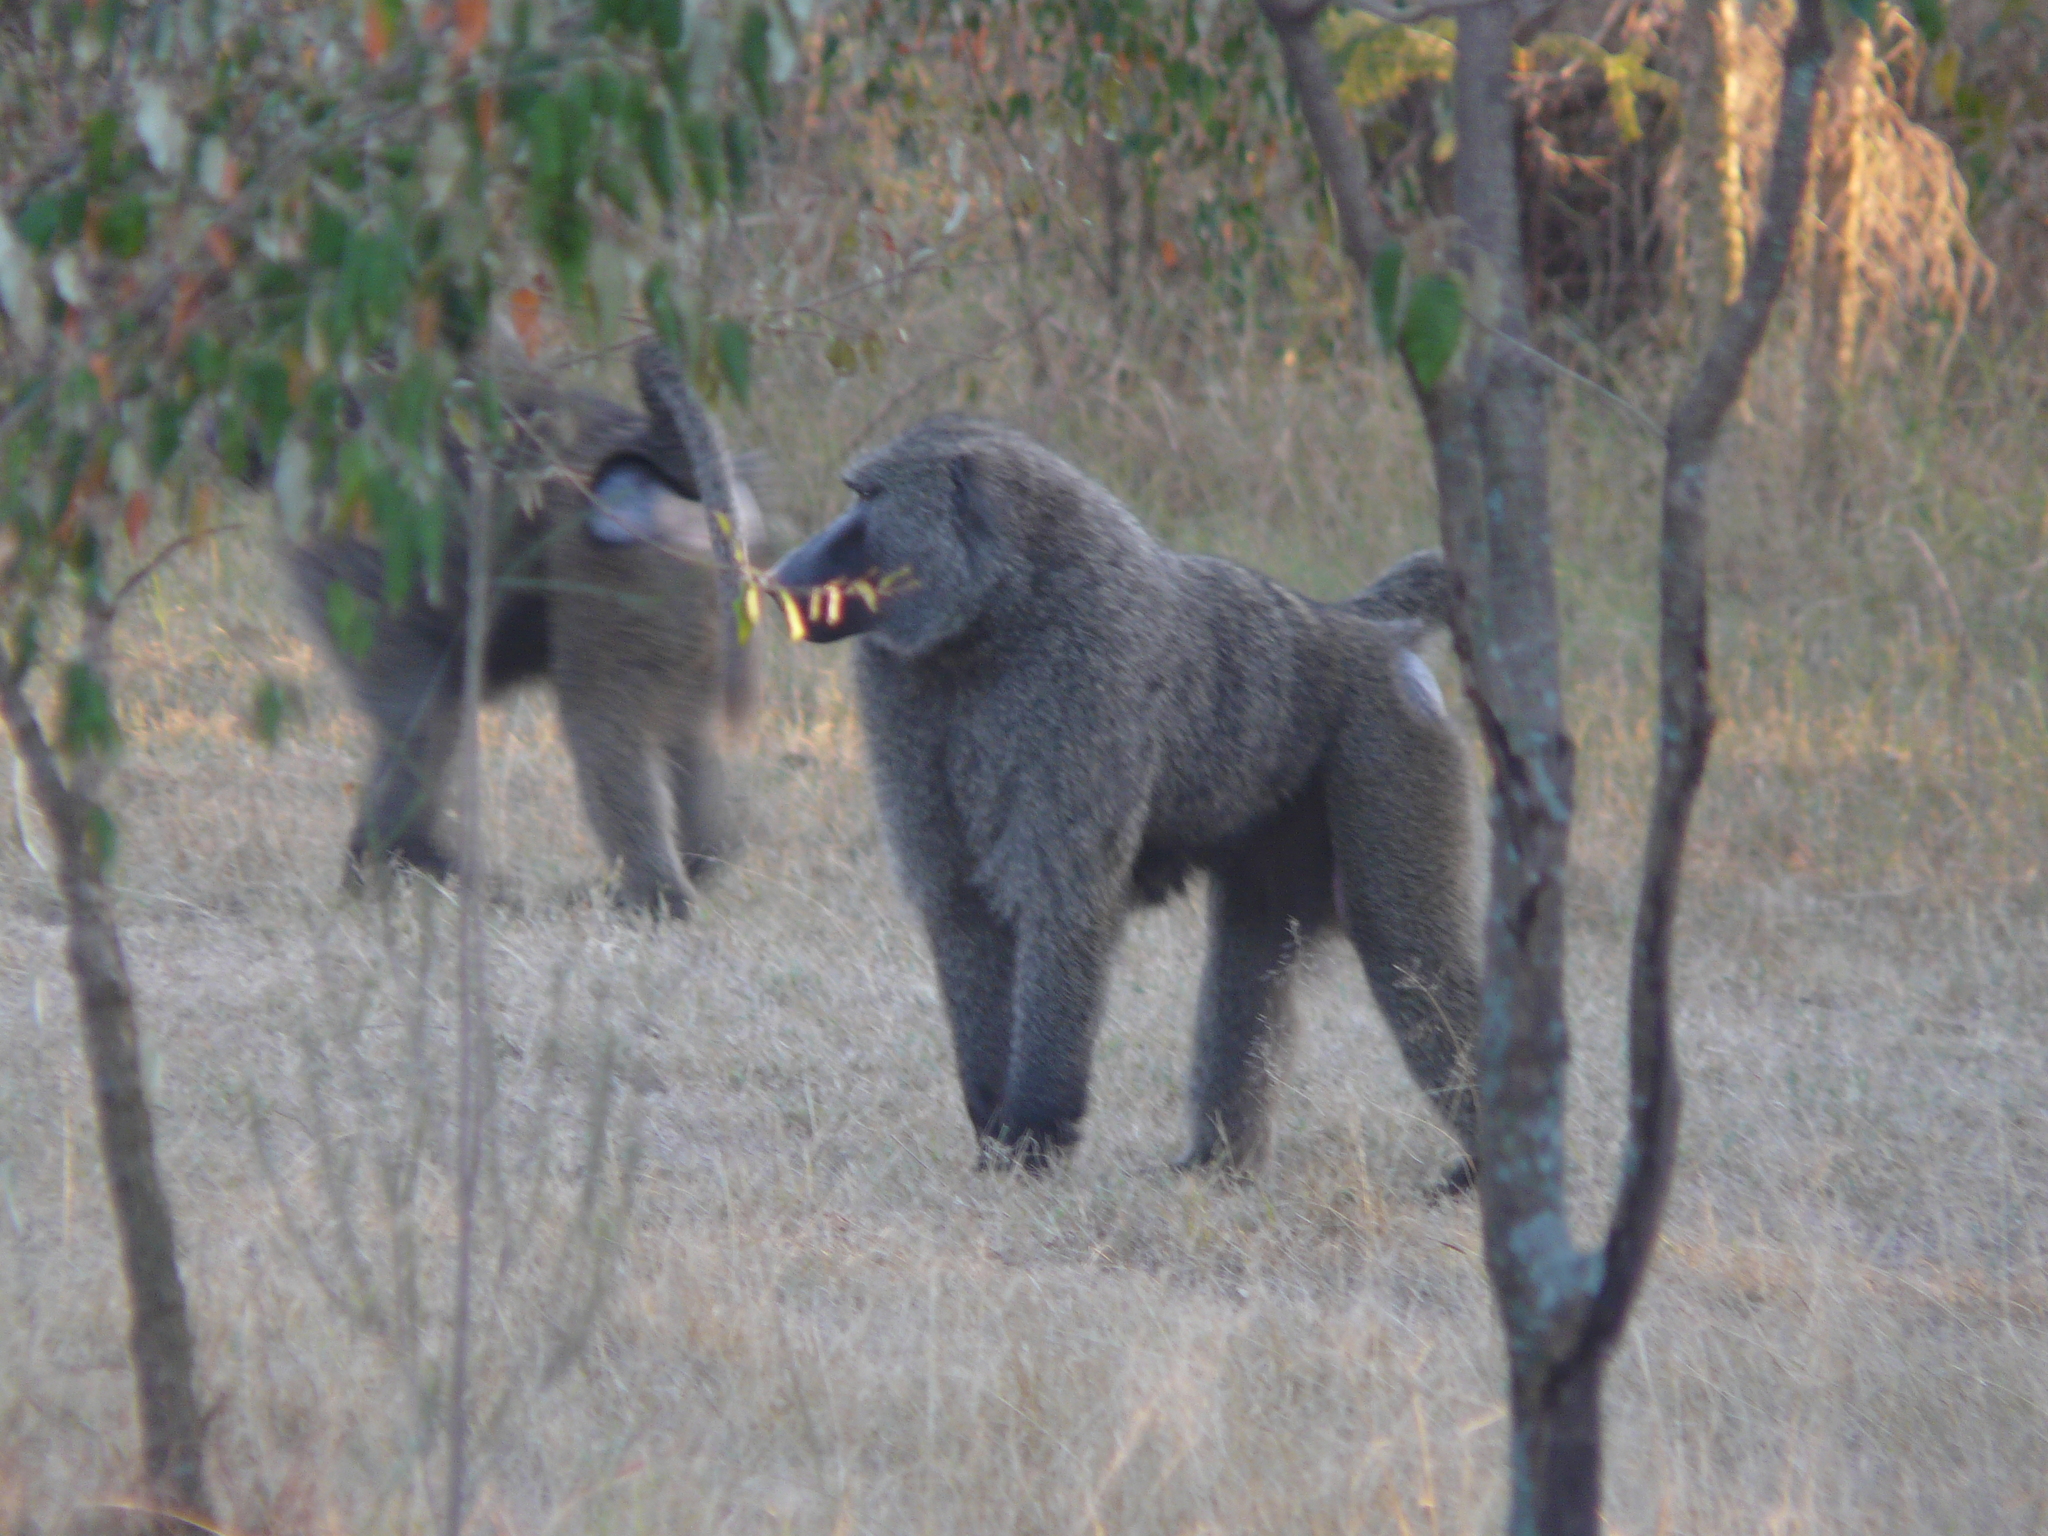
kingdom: Animalia
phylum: Chordata
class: Mammalia
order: Primates
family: Cercopithecidae
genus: Papio
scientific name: Papio anubis
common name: Olive baboon
